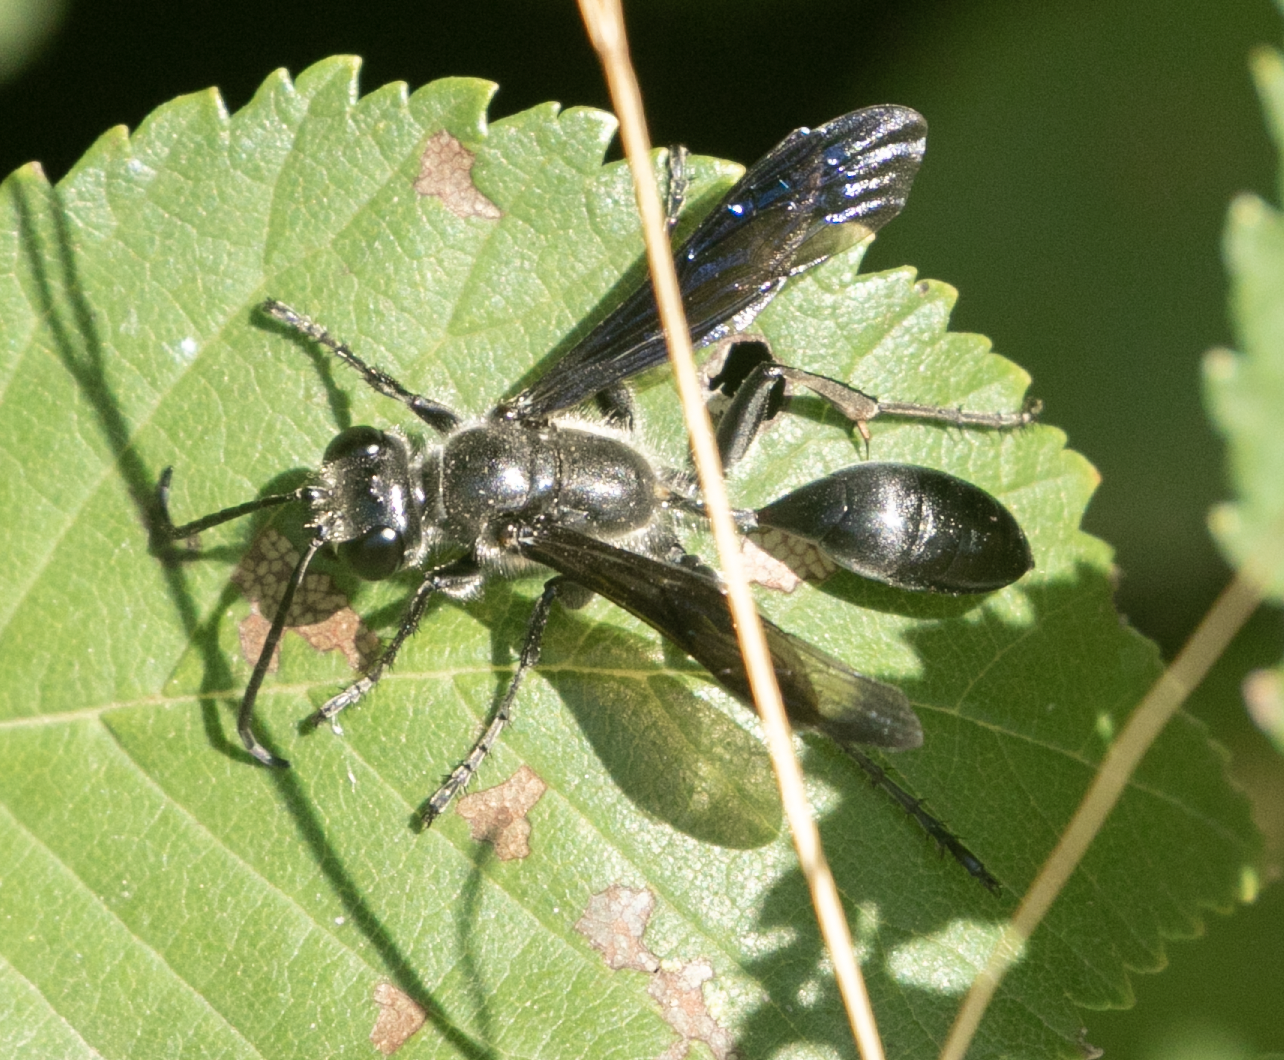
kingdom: Animalia
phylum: Arthropoda
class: Insecta
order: Hymenoptera
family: Sphecidae
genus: Isodontia
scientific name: Isodontia mexicana
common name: Mud dauber
